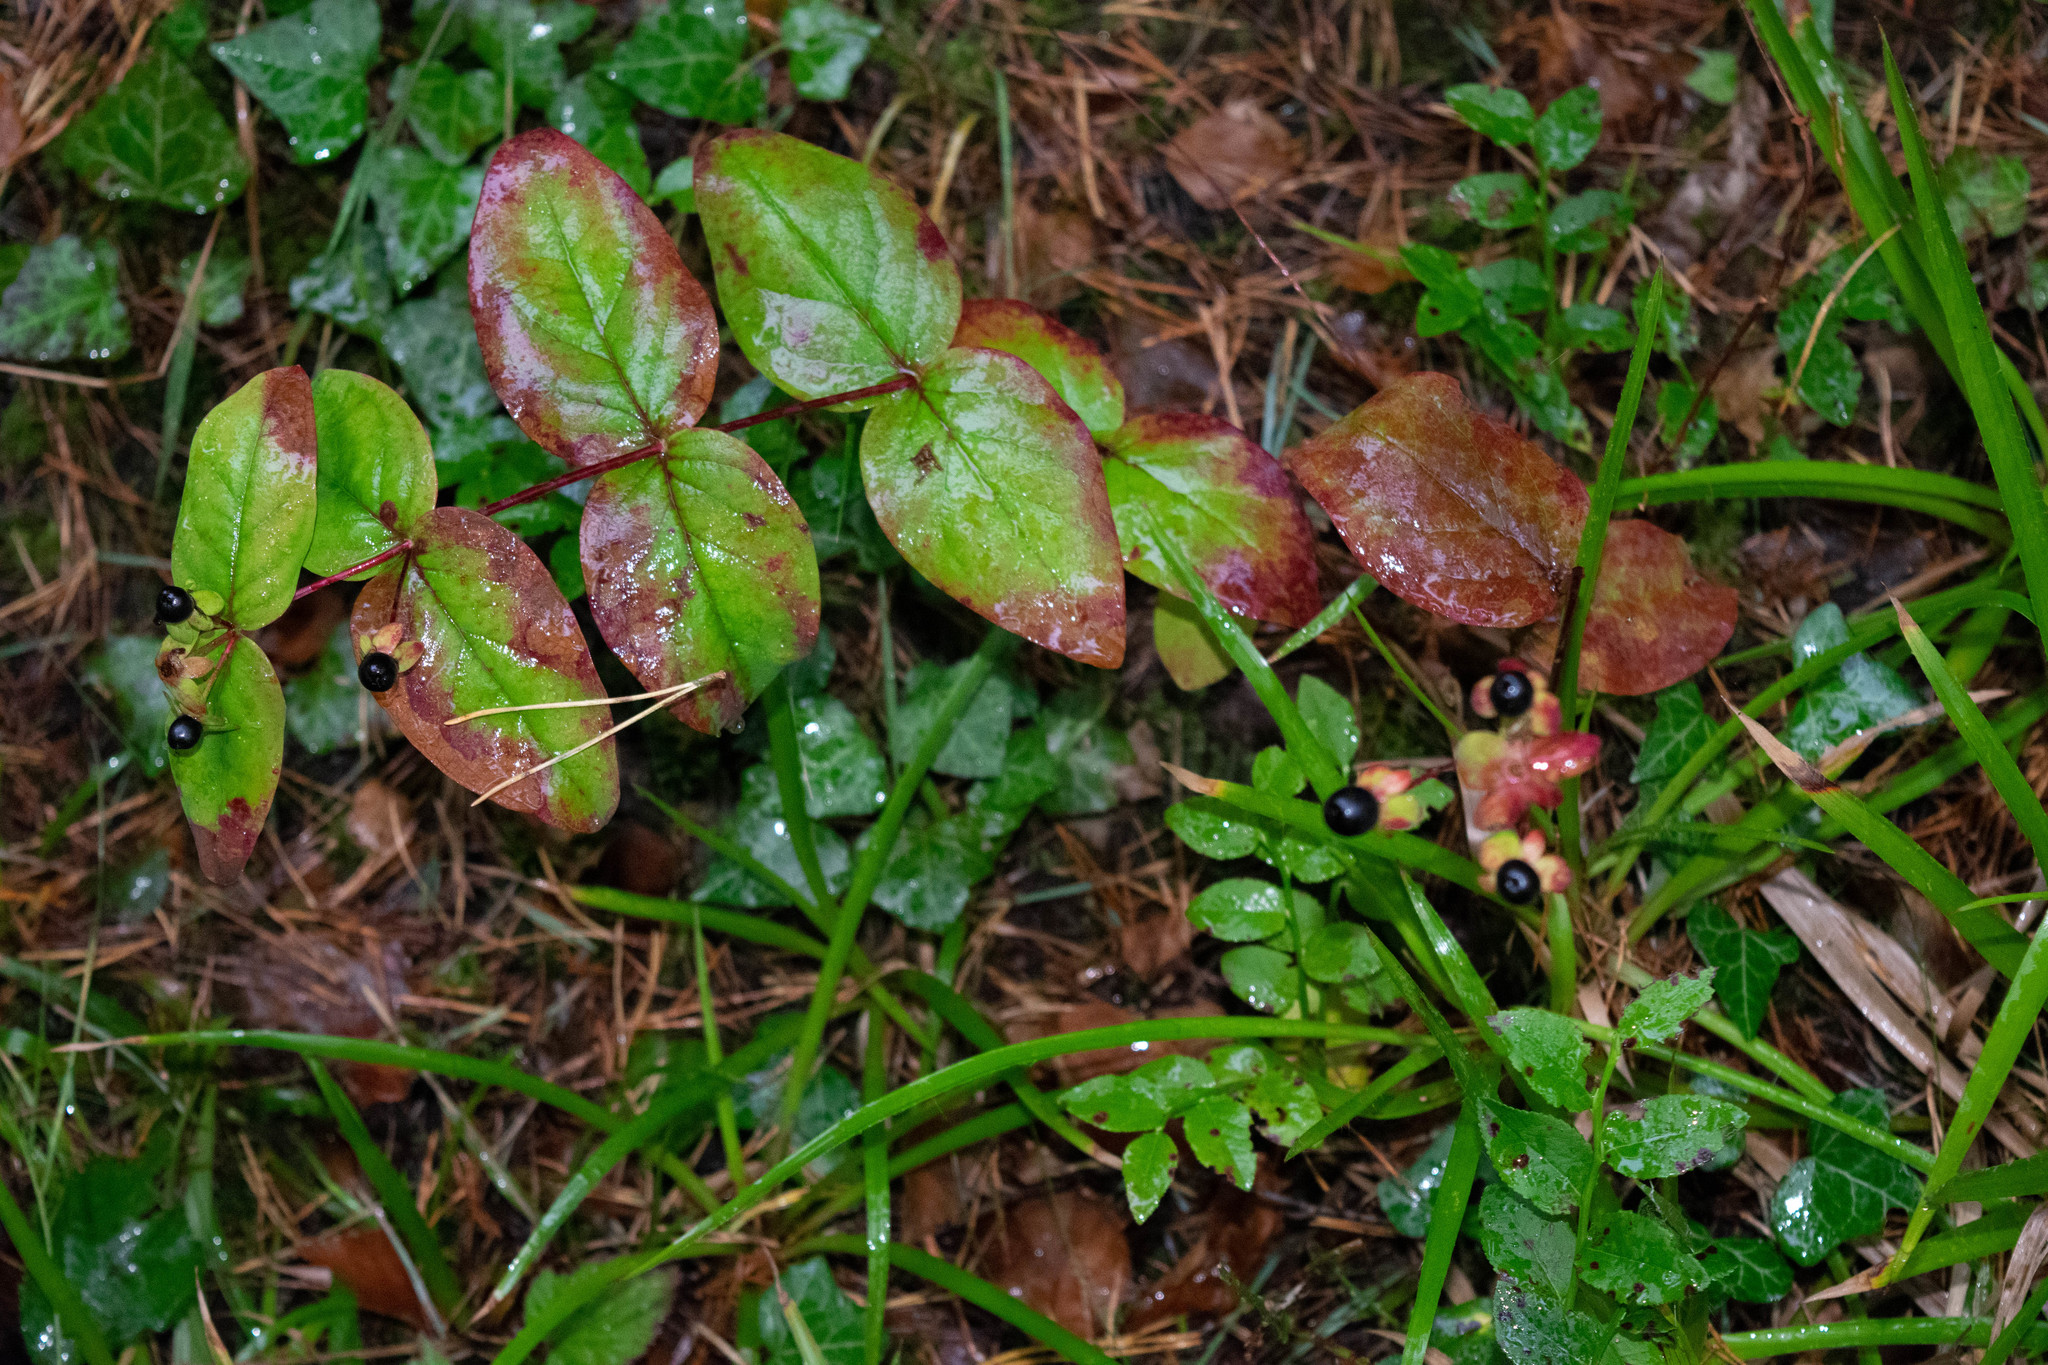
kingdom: Plantae
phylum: Tracheophyta
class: Magnoliopsida
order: Malpighiales
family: Hypericaceae
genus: Hypericum
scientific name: Hypericum androsaemum
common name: Sweet-amber
